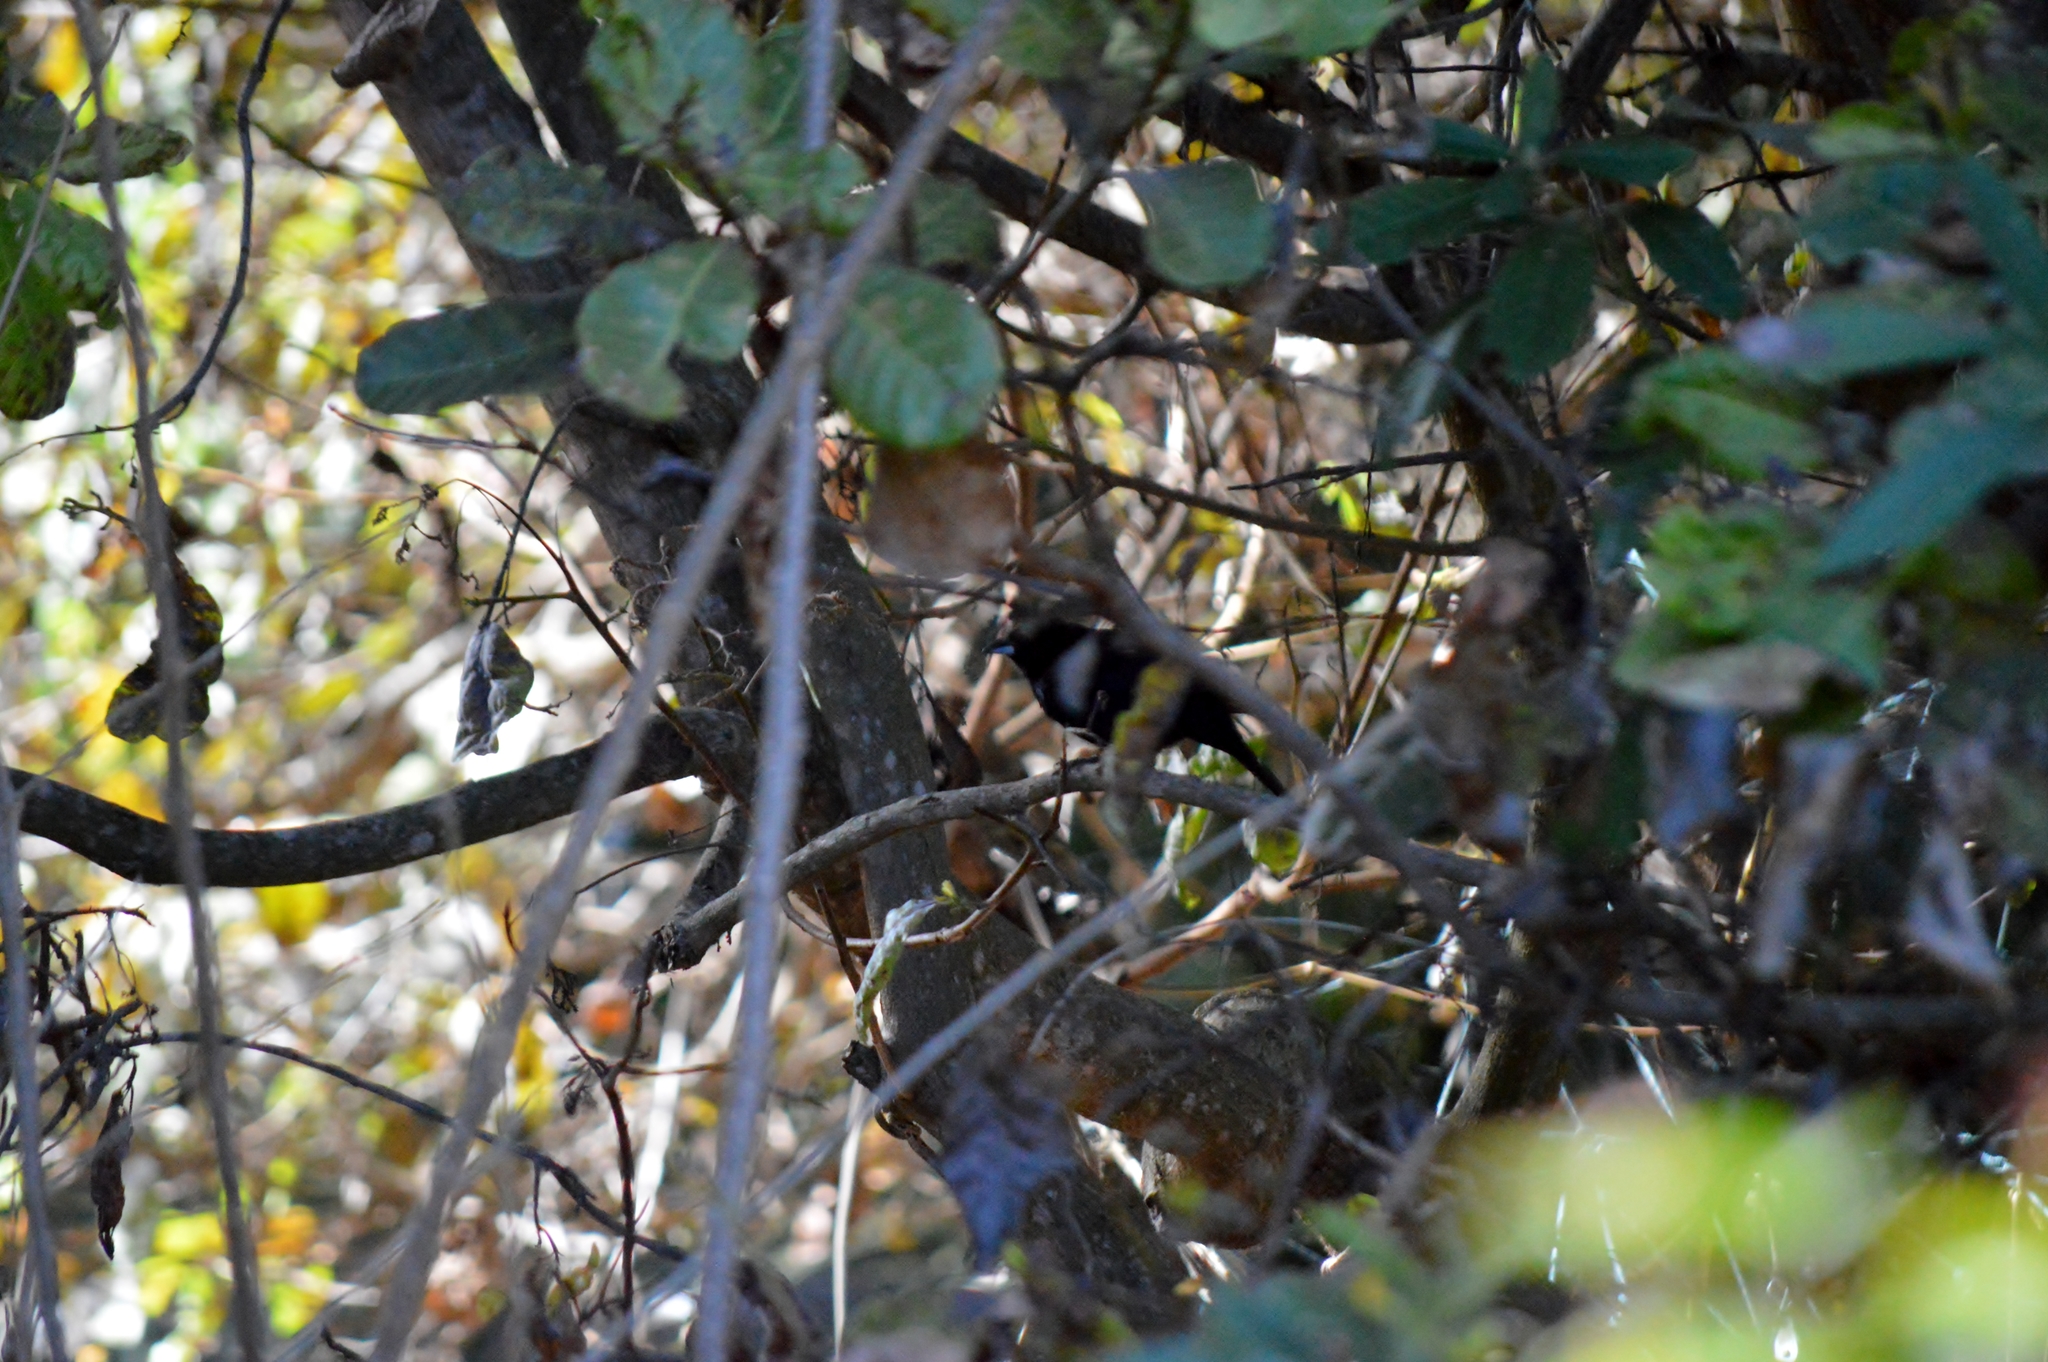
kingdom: Animalia
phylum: Chordata
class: Aves
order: Passeriformes
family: Thraupidae
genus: Tachyphonus
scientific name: Tachyphonus rufus
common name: White-lined tanager
